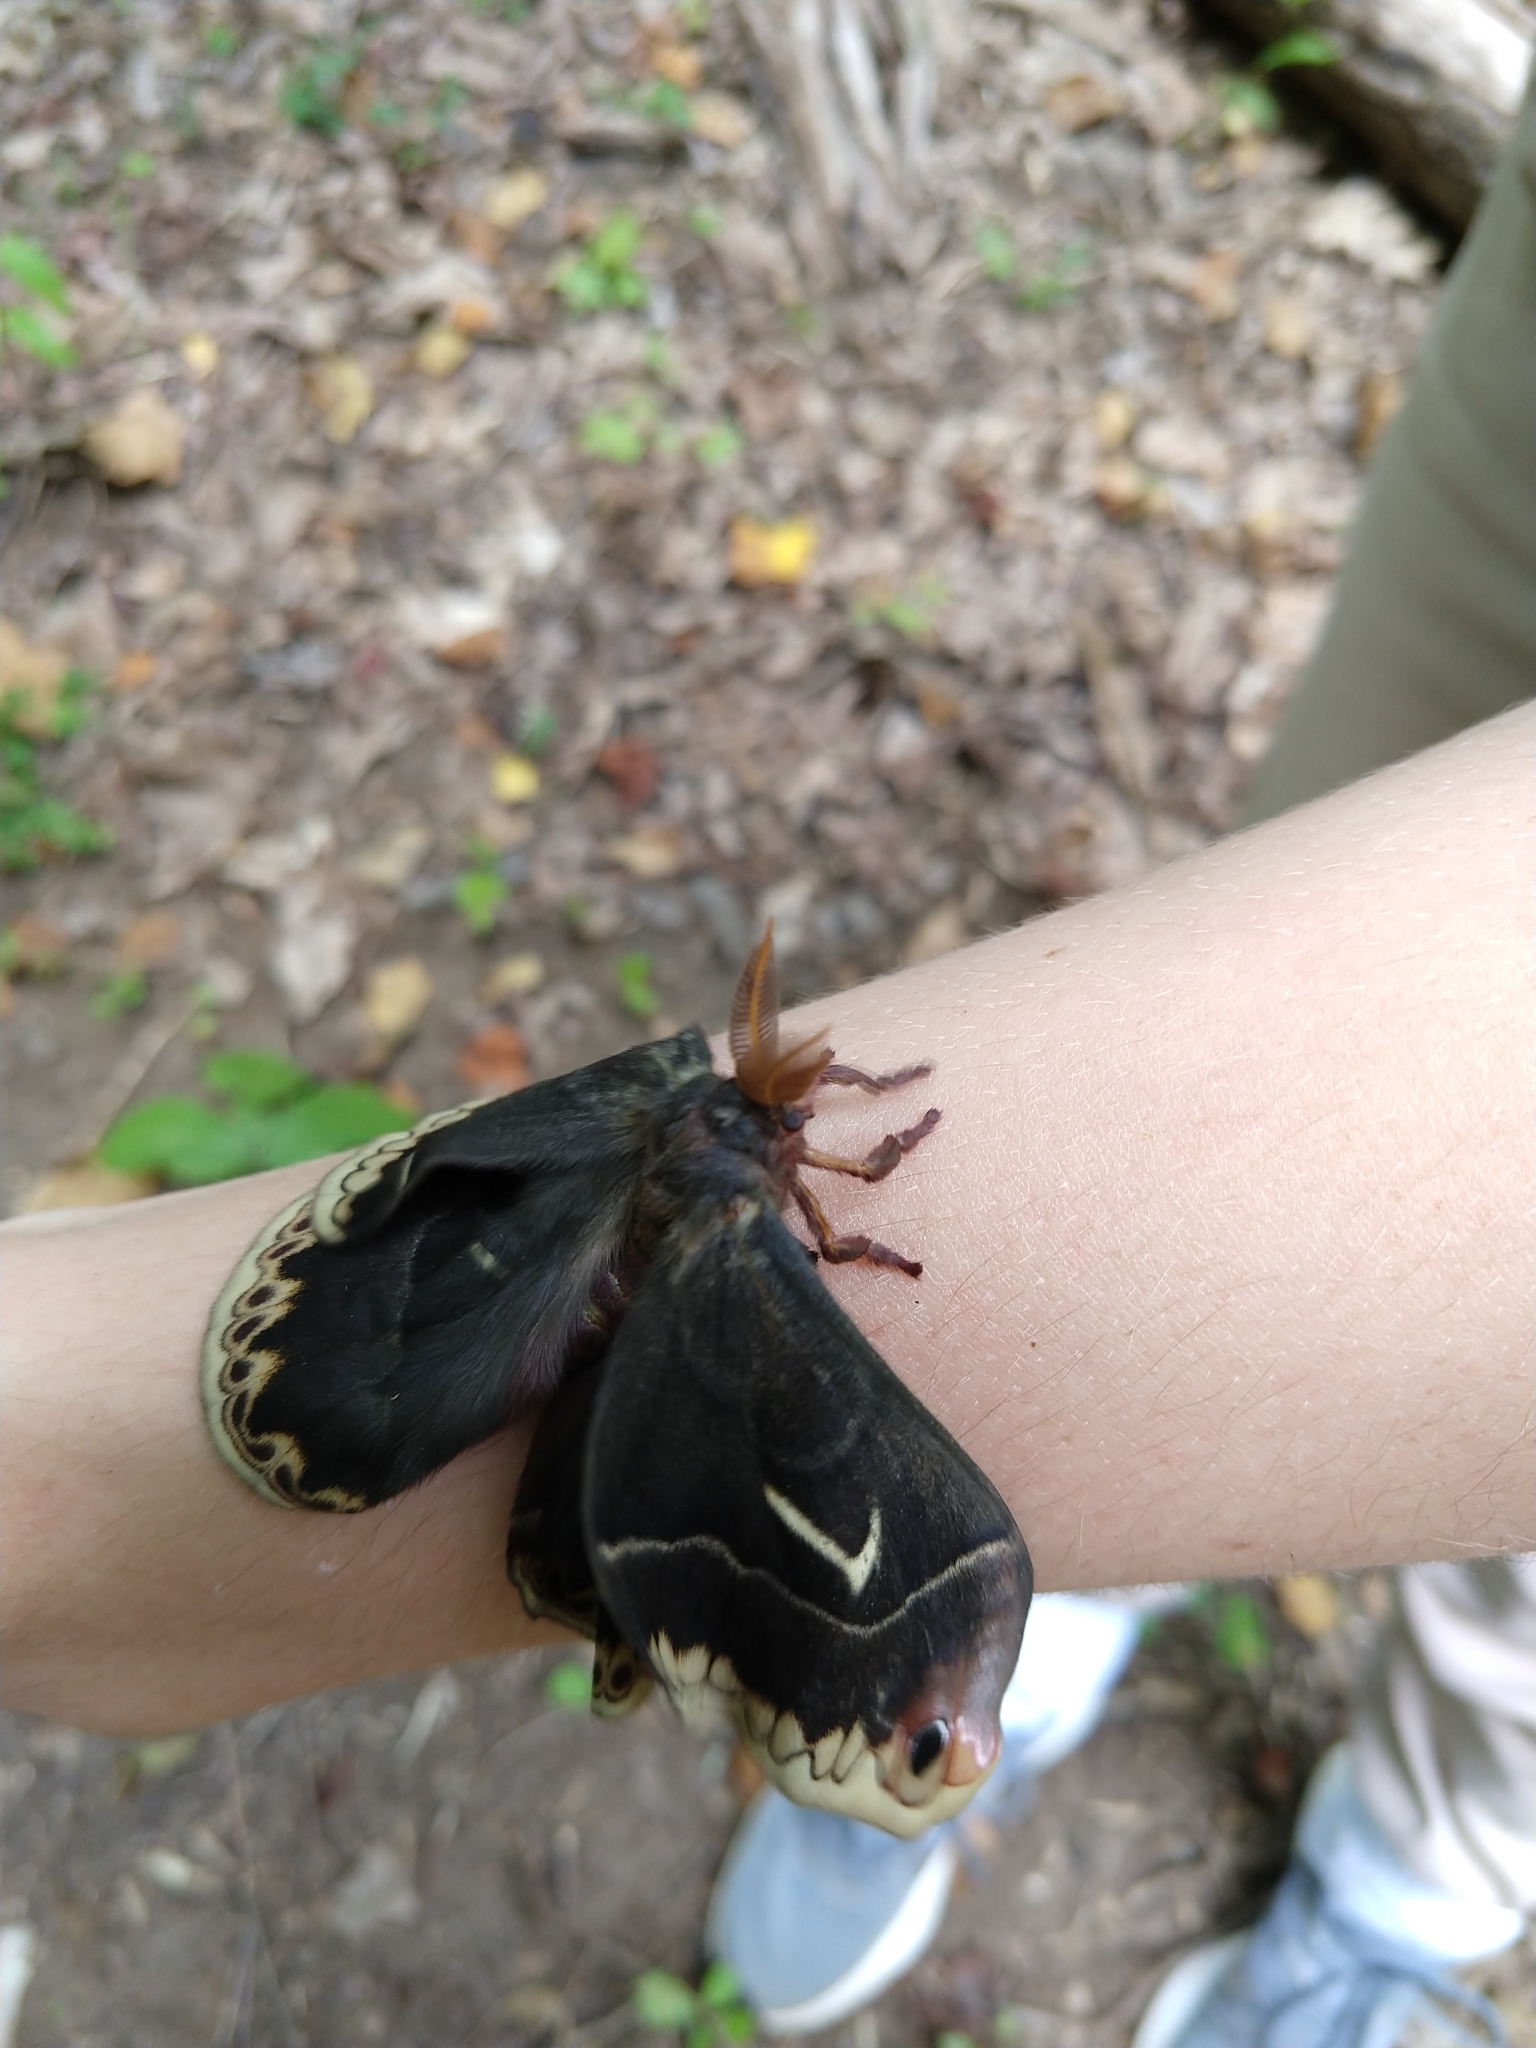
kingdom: Animalia
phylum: Arthropoda
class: Insecta
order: Lepidoptera
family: Saturniidae
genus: Callosamia
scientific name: Callosamia angulifera
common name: Tulip tree silkmoth
